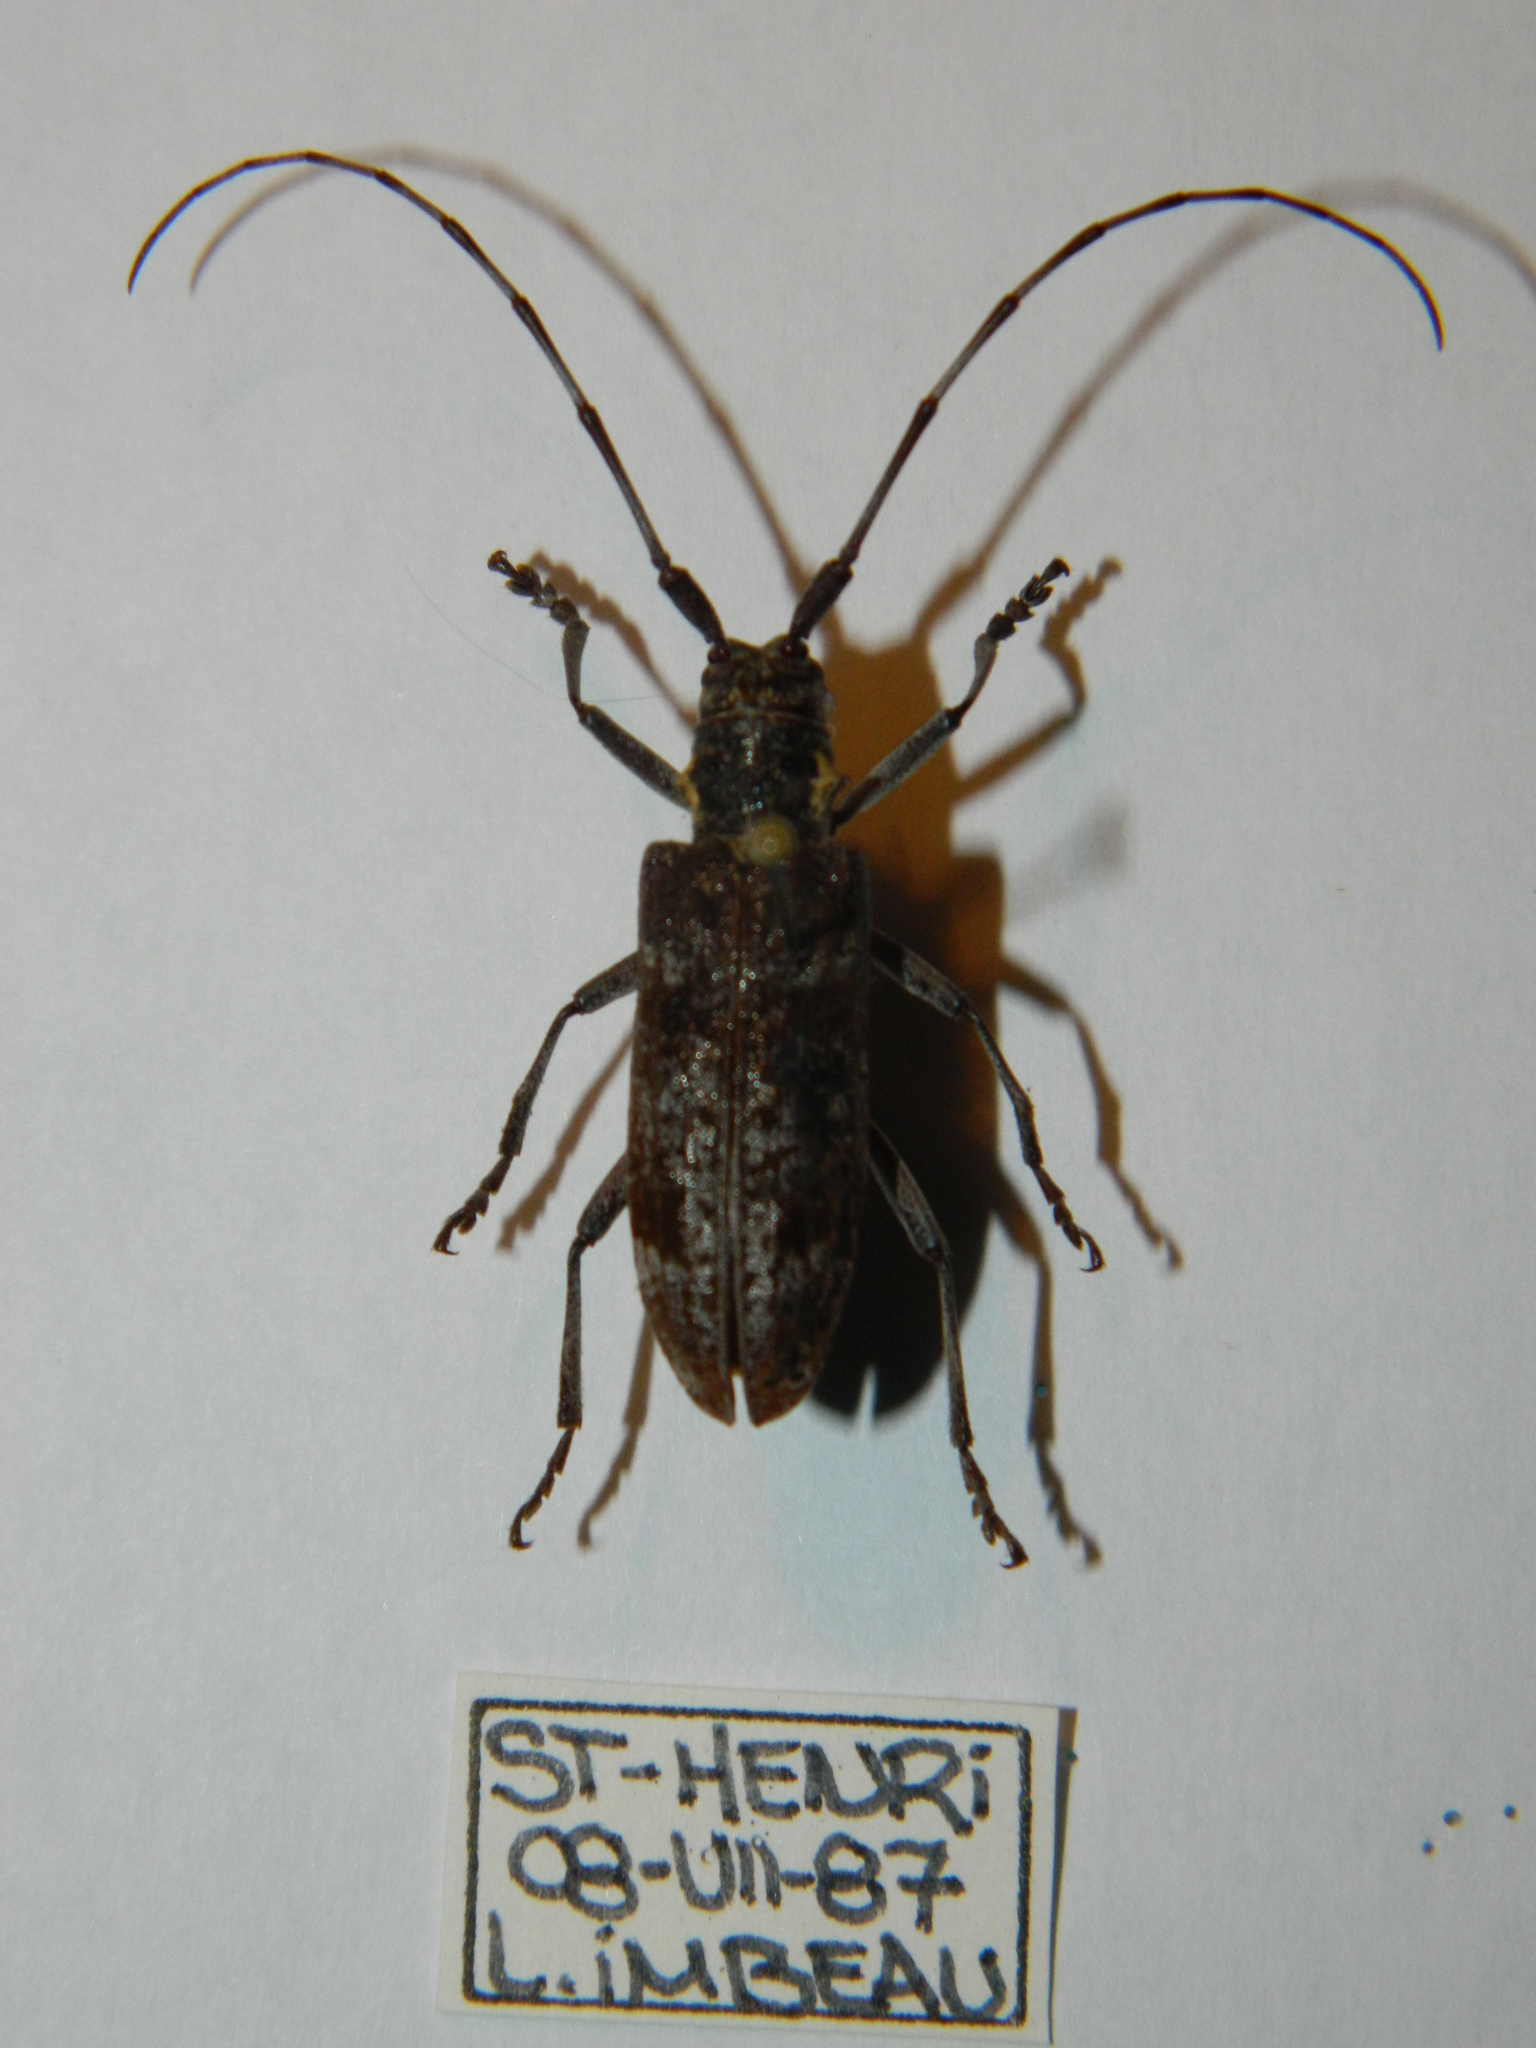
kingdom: Animalia
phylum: Arthropoda
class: Insecta
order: Coleoptera
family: Cerambycidae
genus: Monochamus
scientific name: Monochamus
